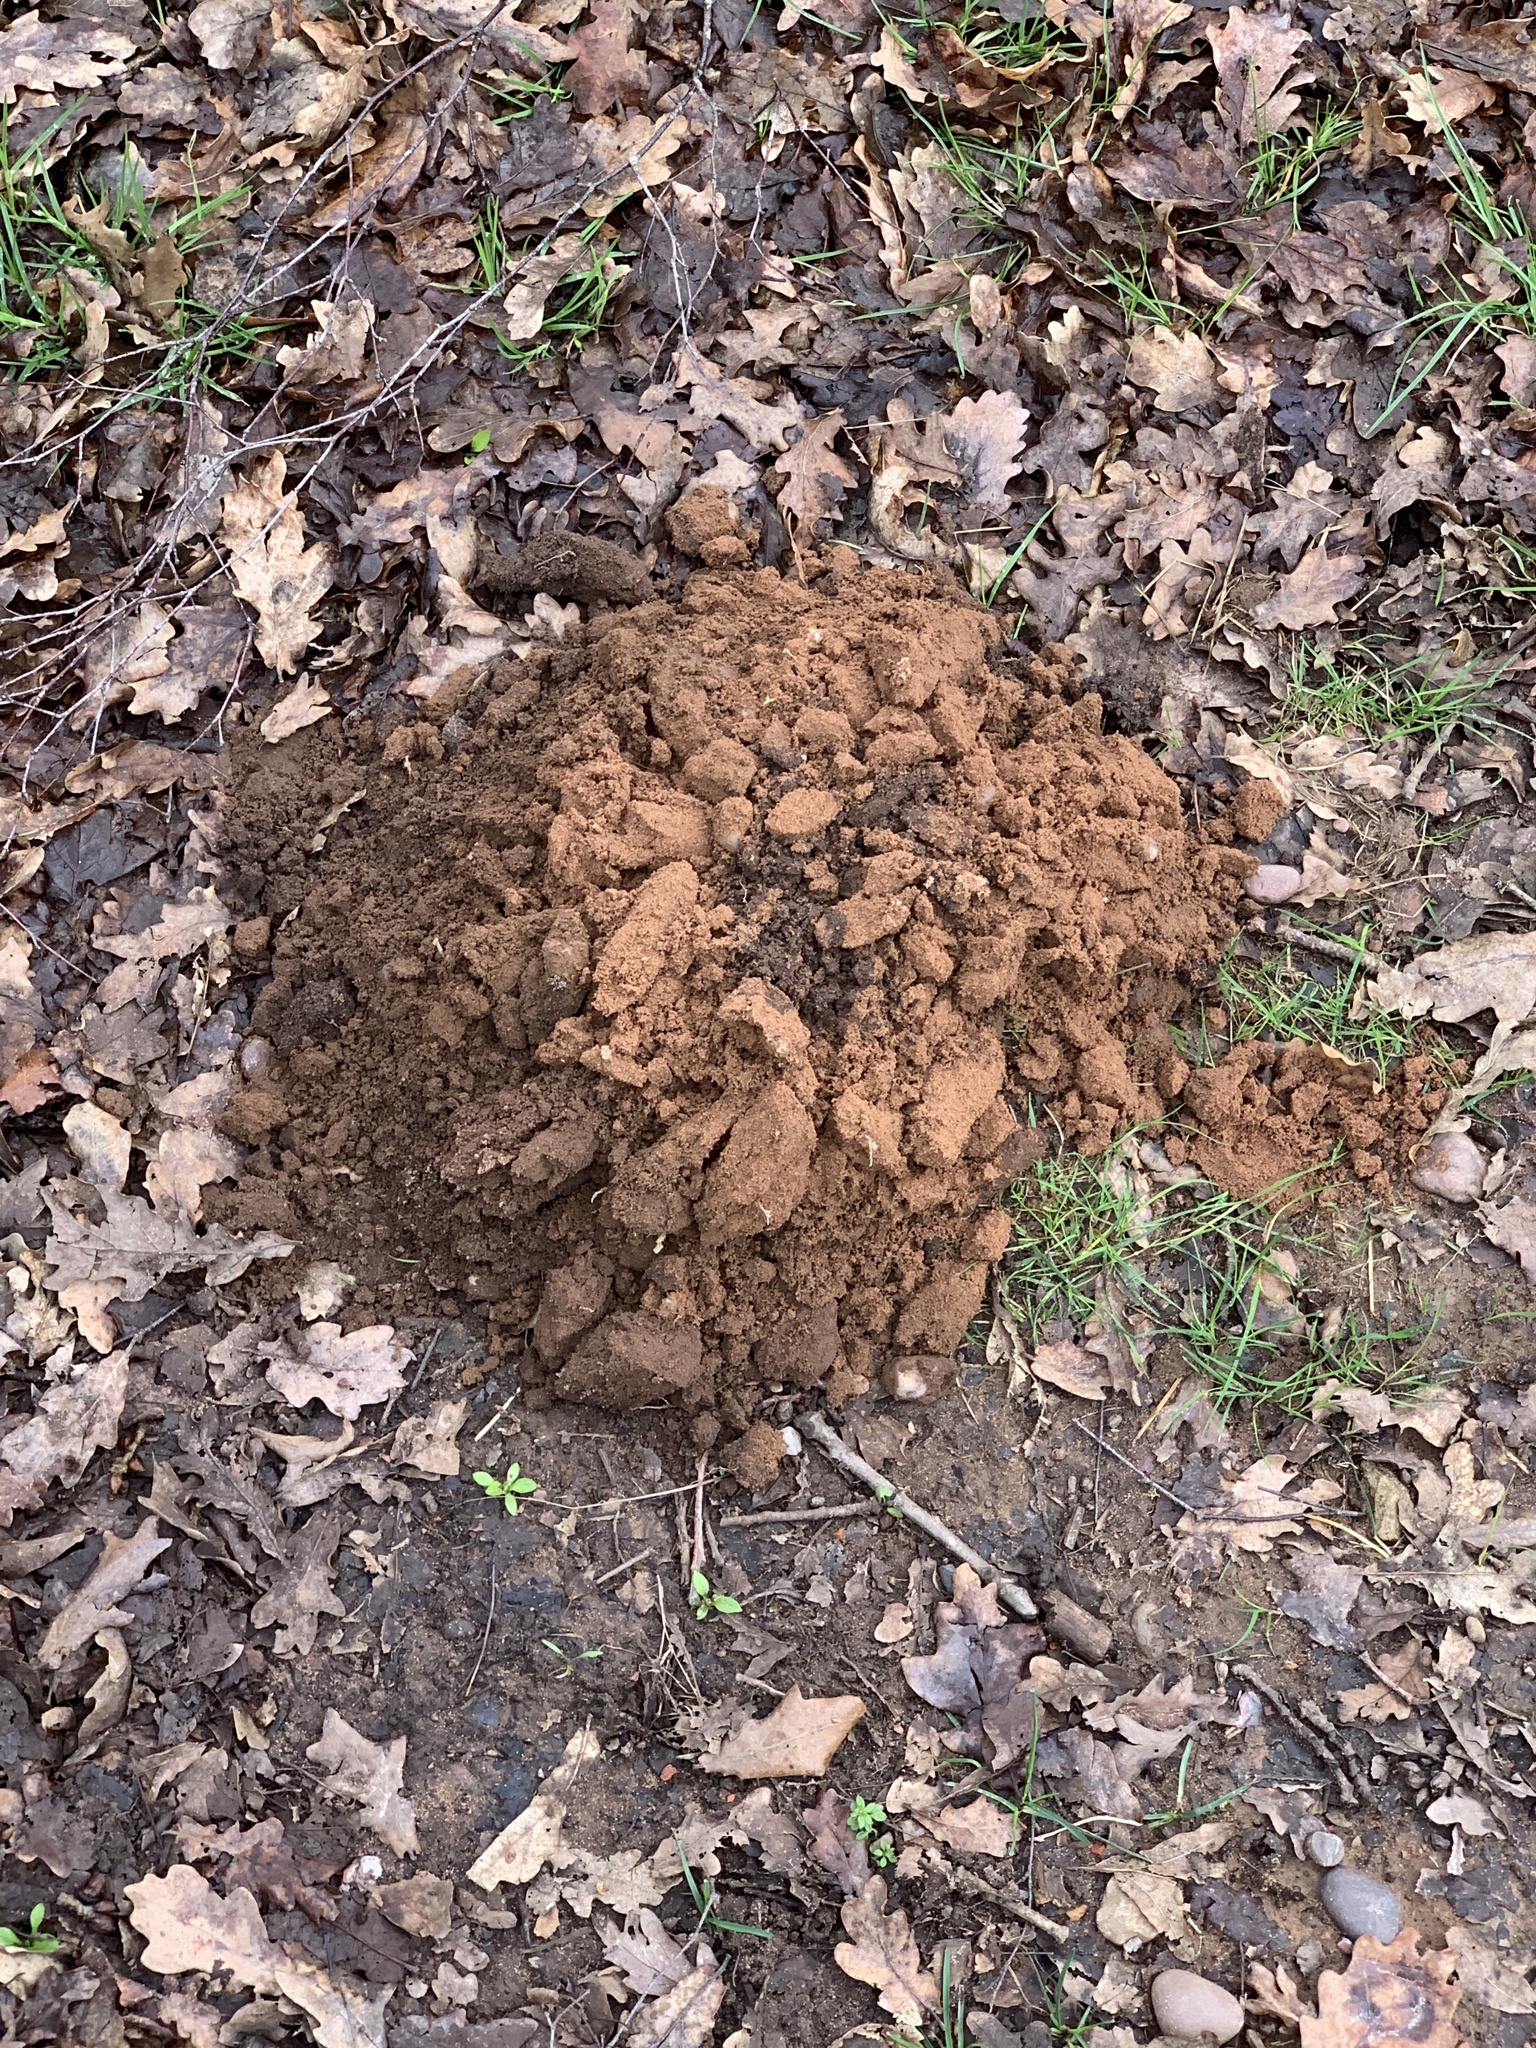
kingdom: Animalia
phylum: Chordata
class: Mammalia
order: Soricomorpha
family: Talpidae
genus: Talpa
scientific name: Talpa europaea
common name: European mole
